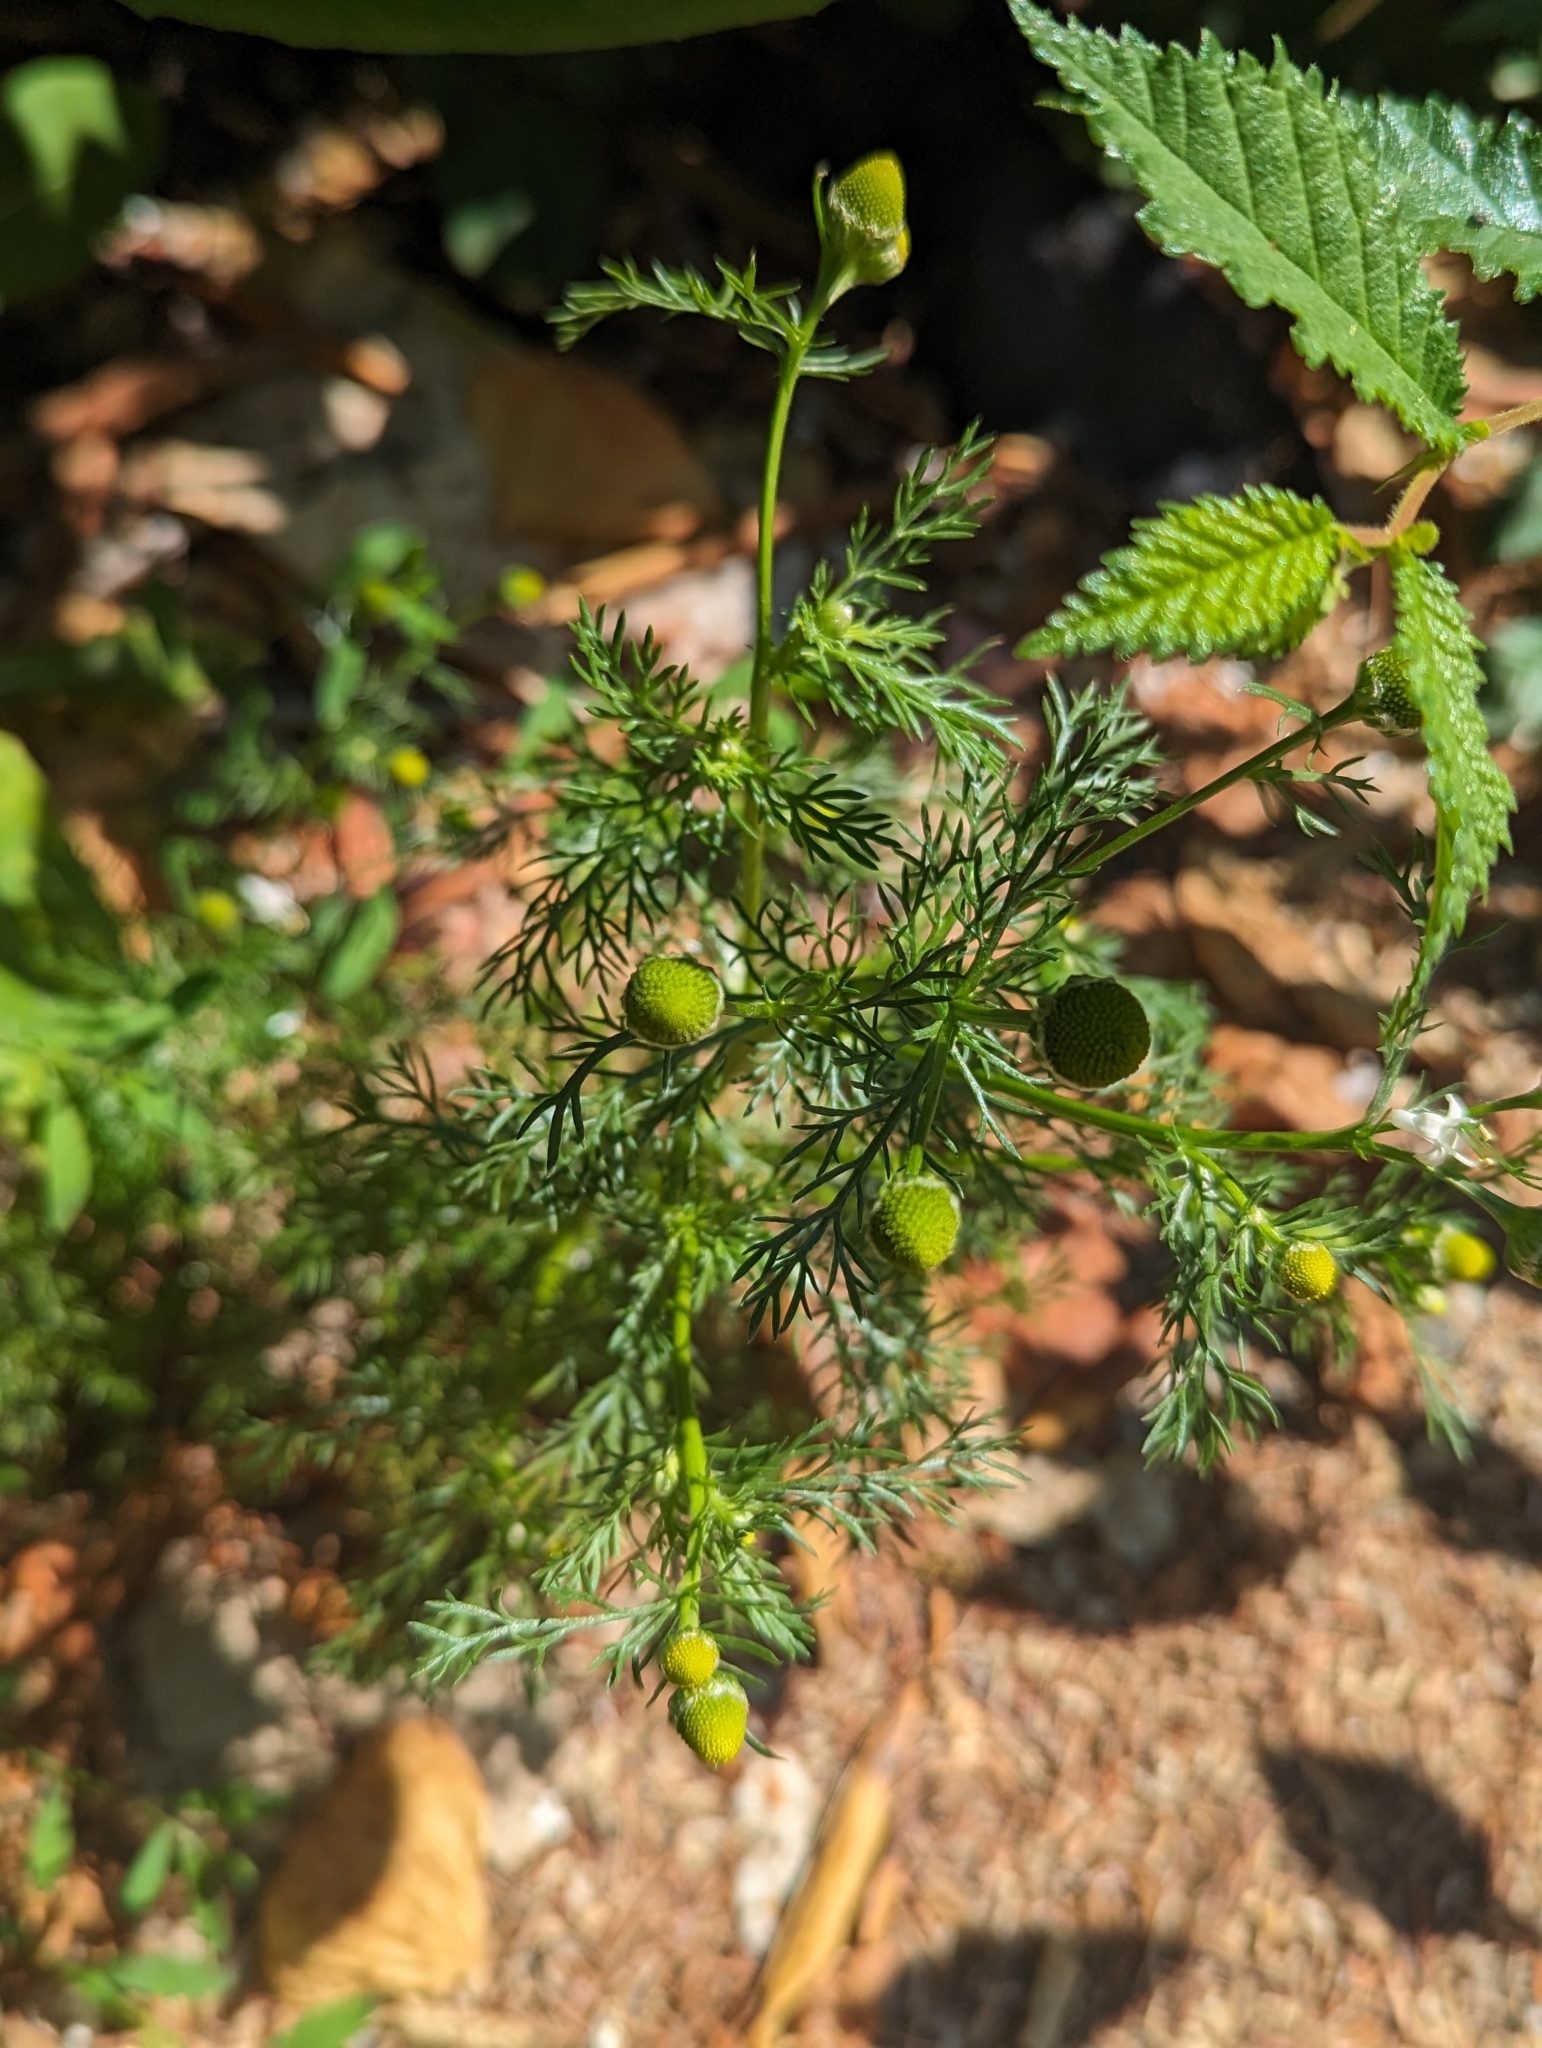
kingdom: Plantae
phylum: Tracheophyta
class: Magnoliopsida
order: Asterales
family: Asteraceae
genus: Matricaria
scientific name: Matricaria discoidea
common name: Disc mayweed
